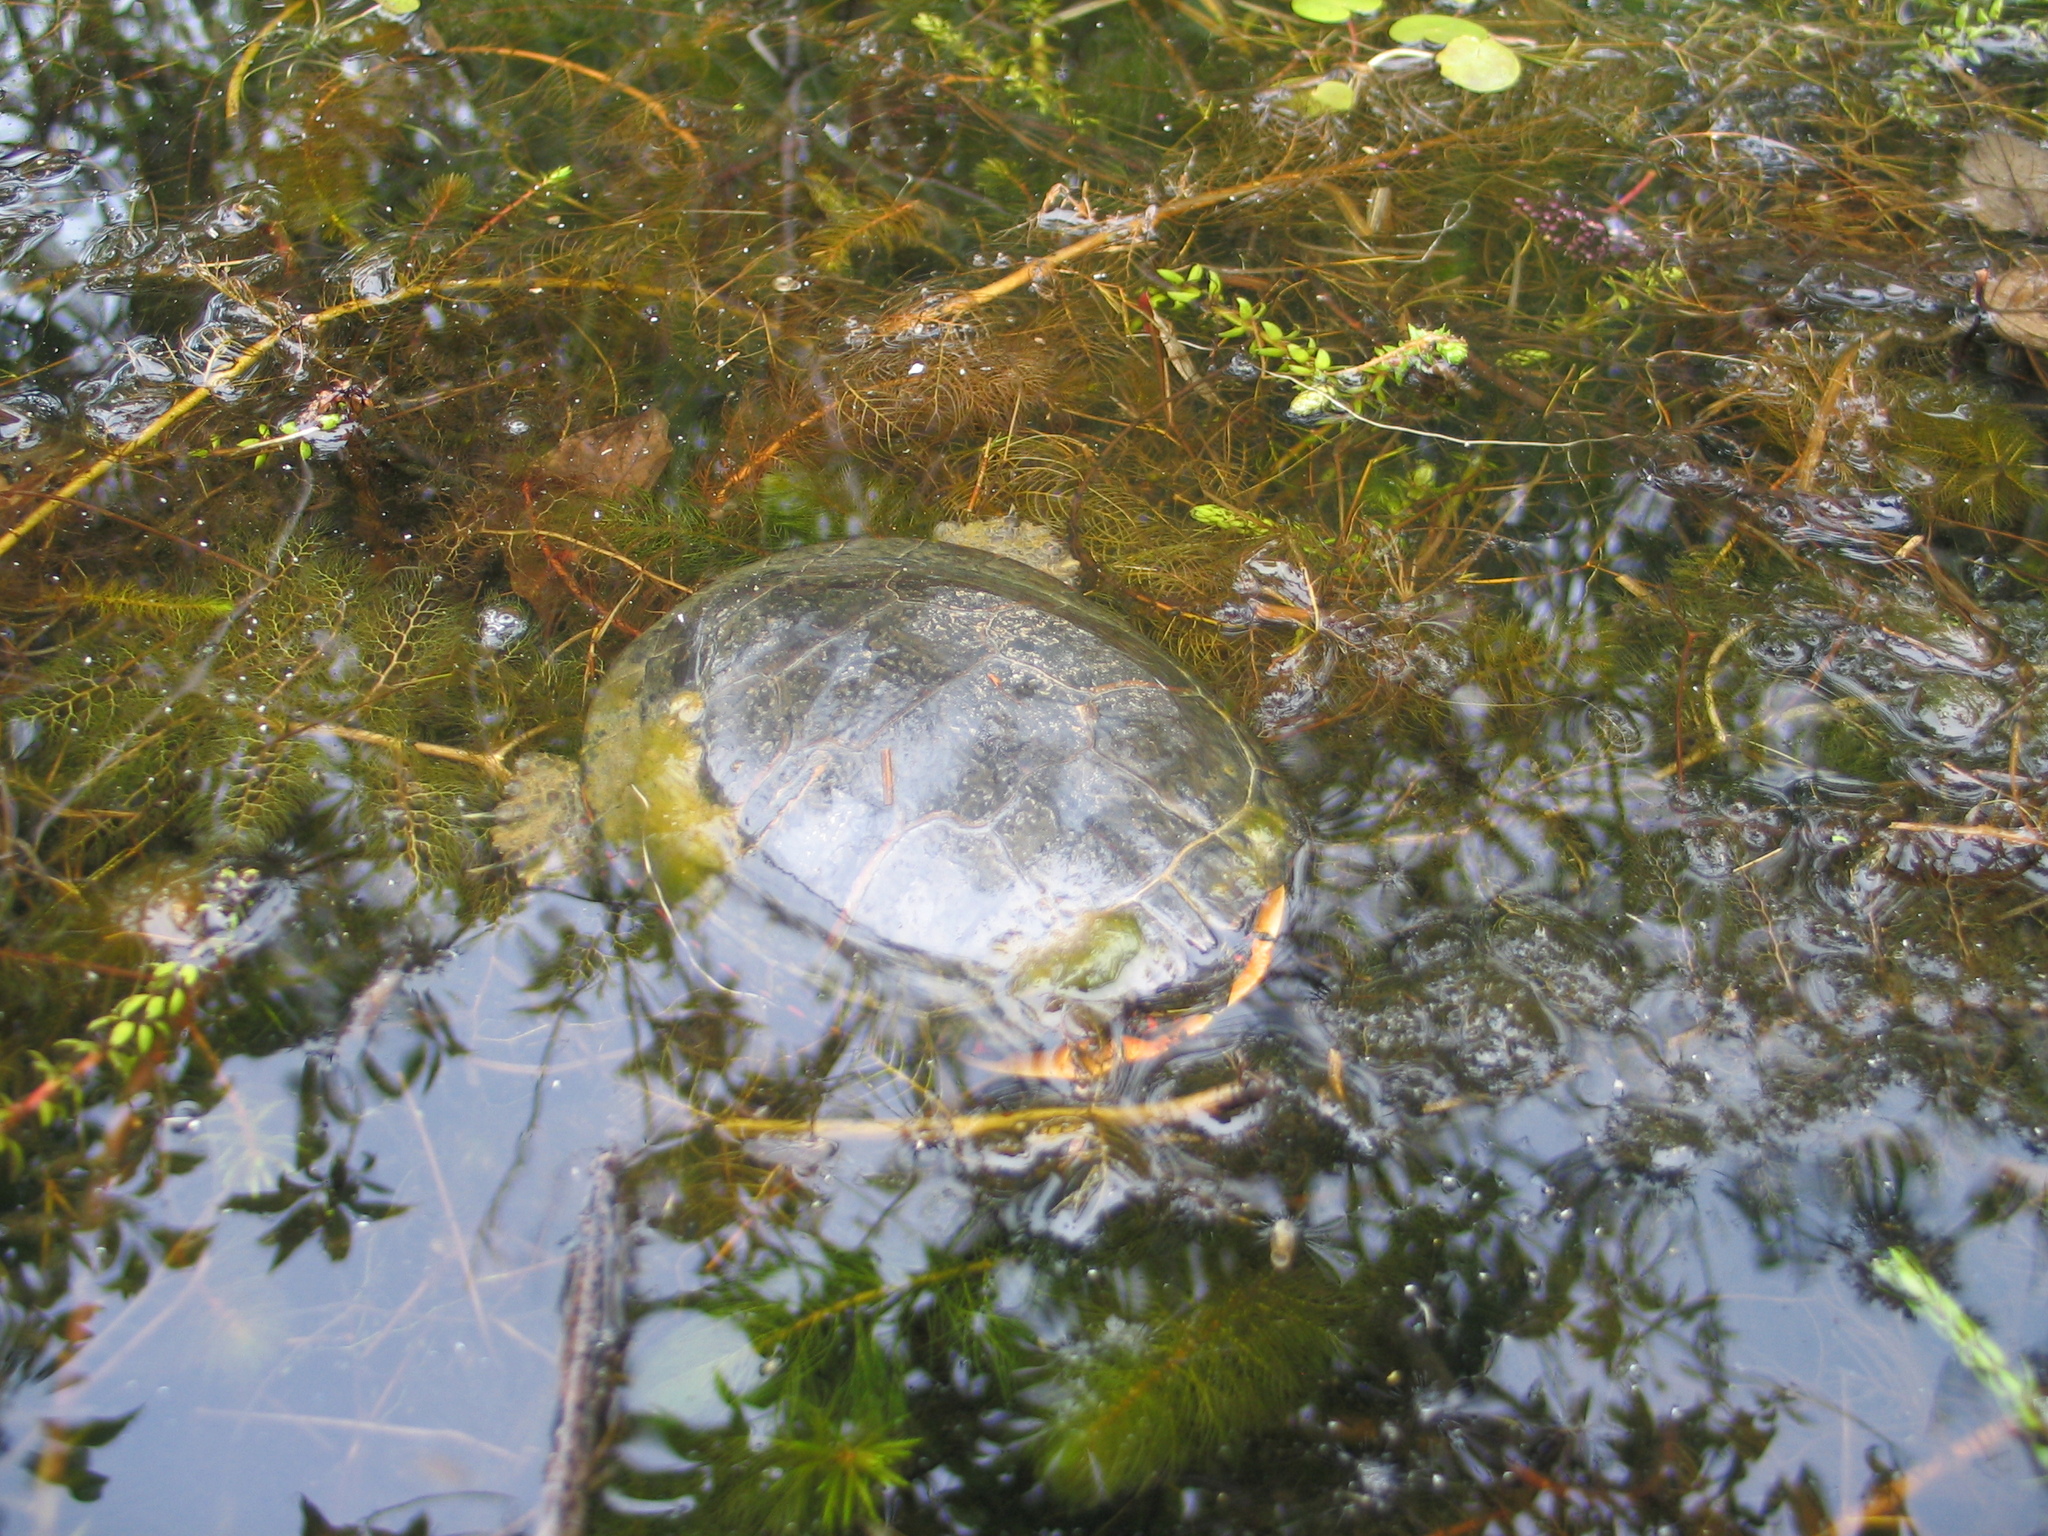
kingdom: Animalia
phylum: Chordata
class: Testudines
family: Emydidae
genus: Chrysemys
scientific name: Chrysemys picta
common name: Painted turtle
